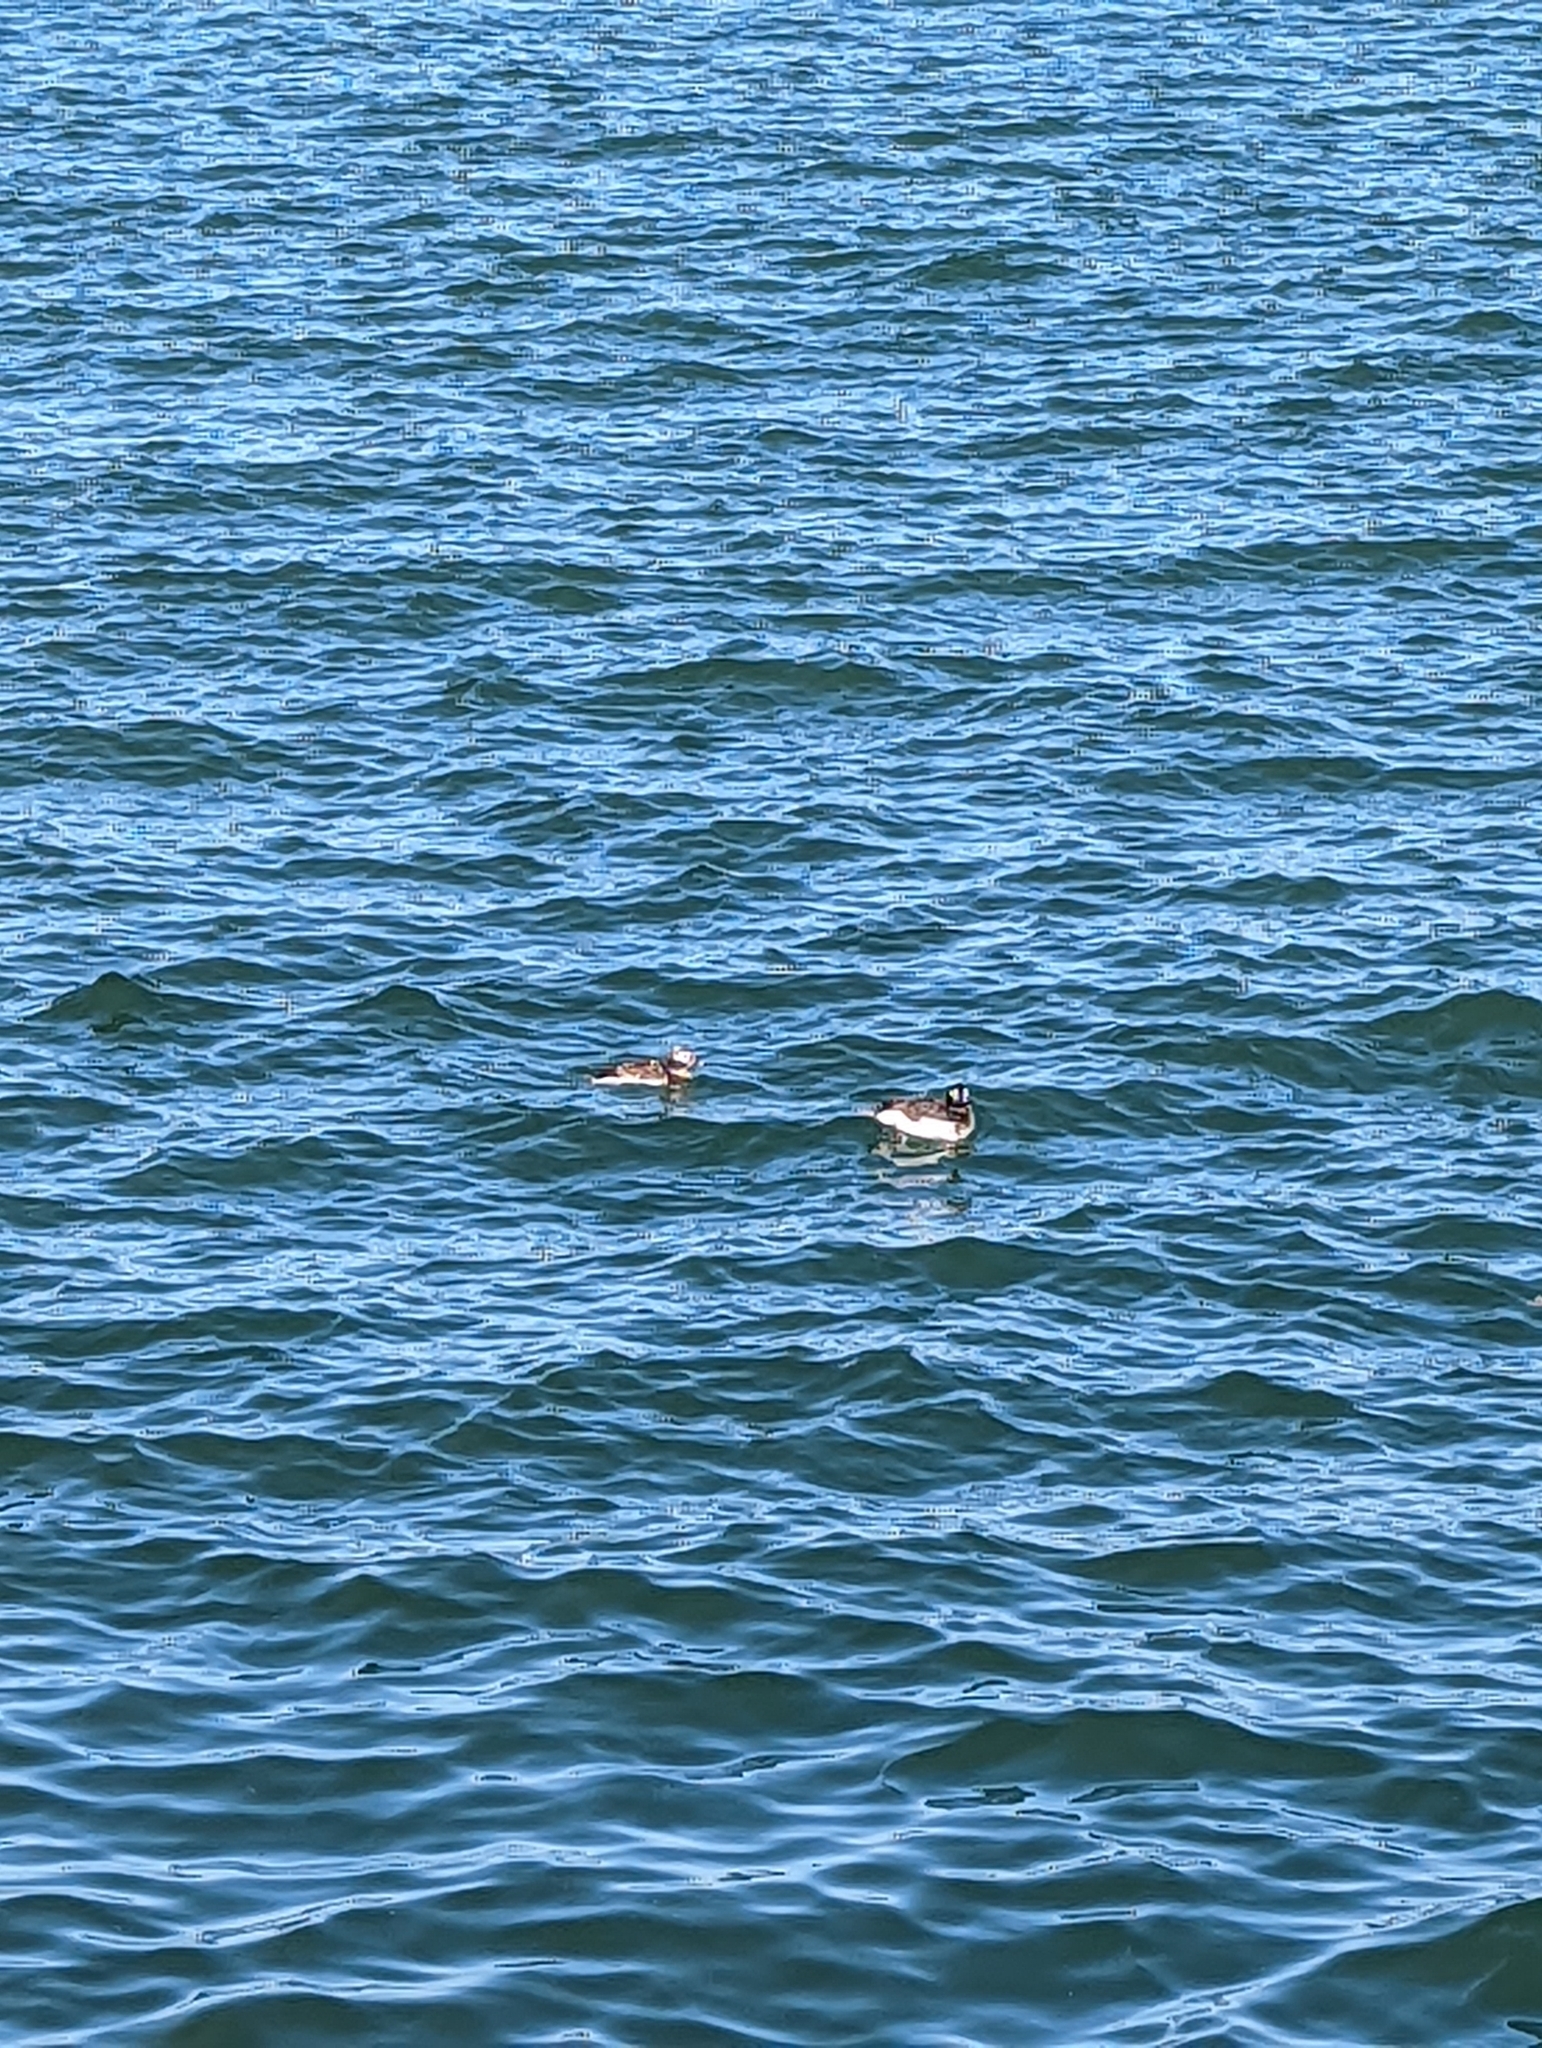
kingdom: Animalia
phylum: Chordata
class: Aves
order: Anseriformes
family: Anatidae
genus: Clangula
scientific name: Clangula hyemalis
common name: Long-tailed duck
